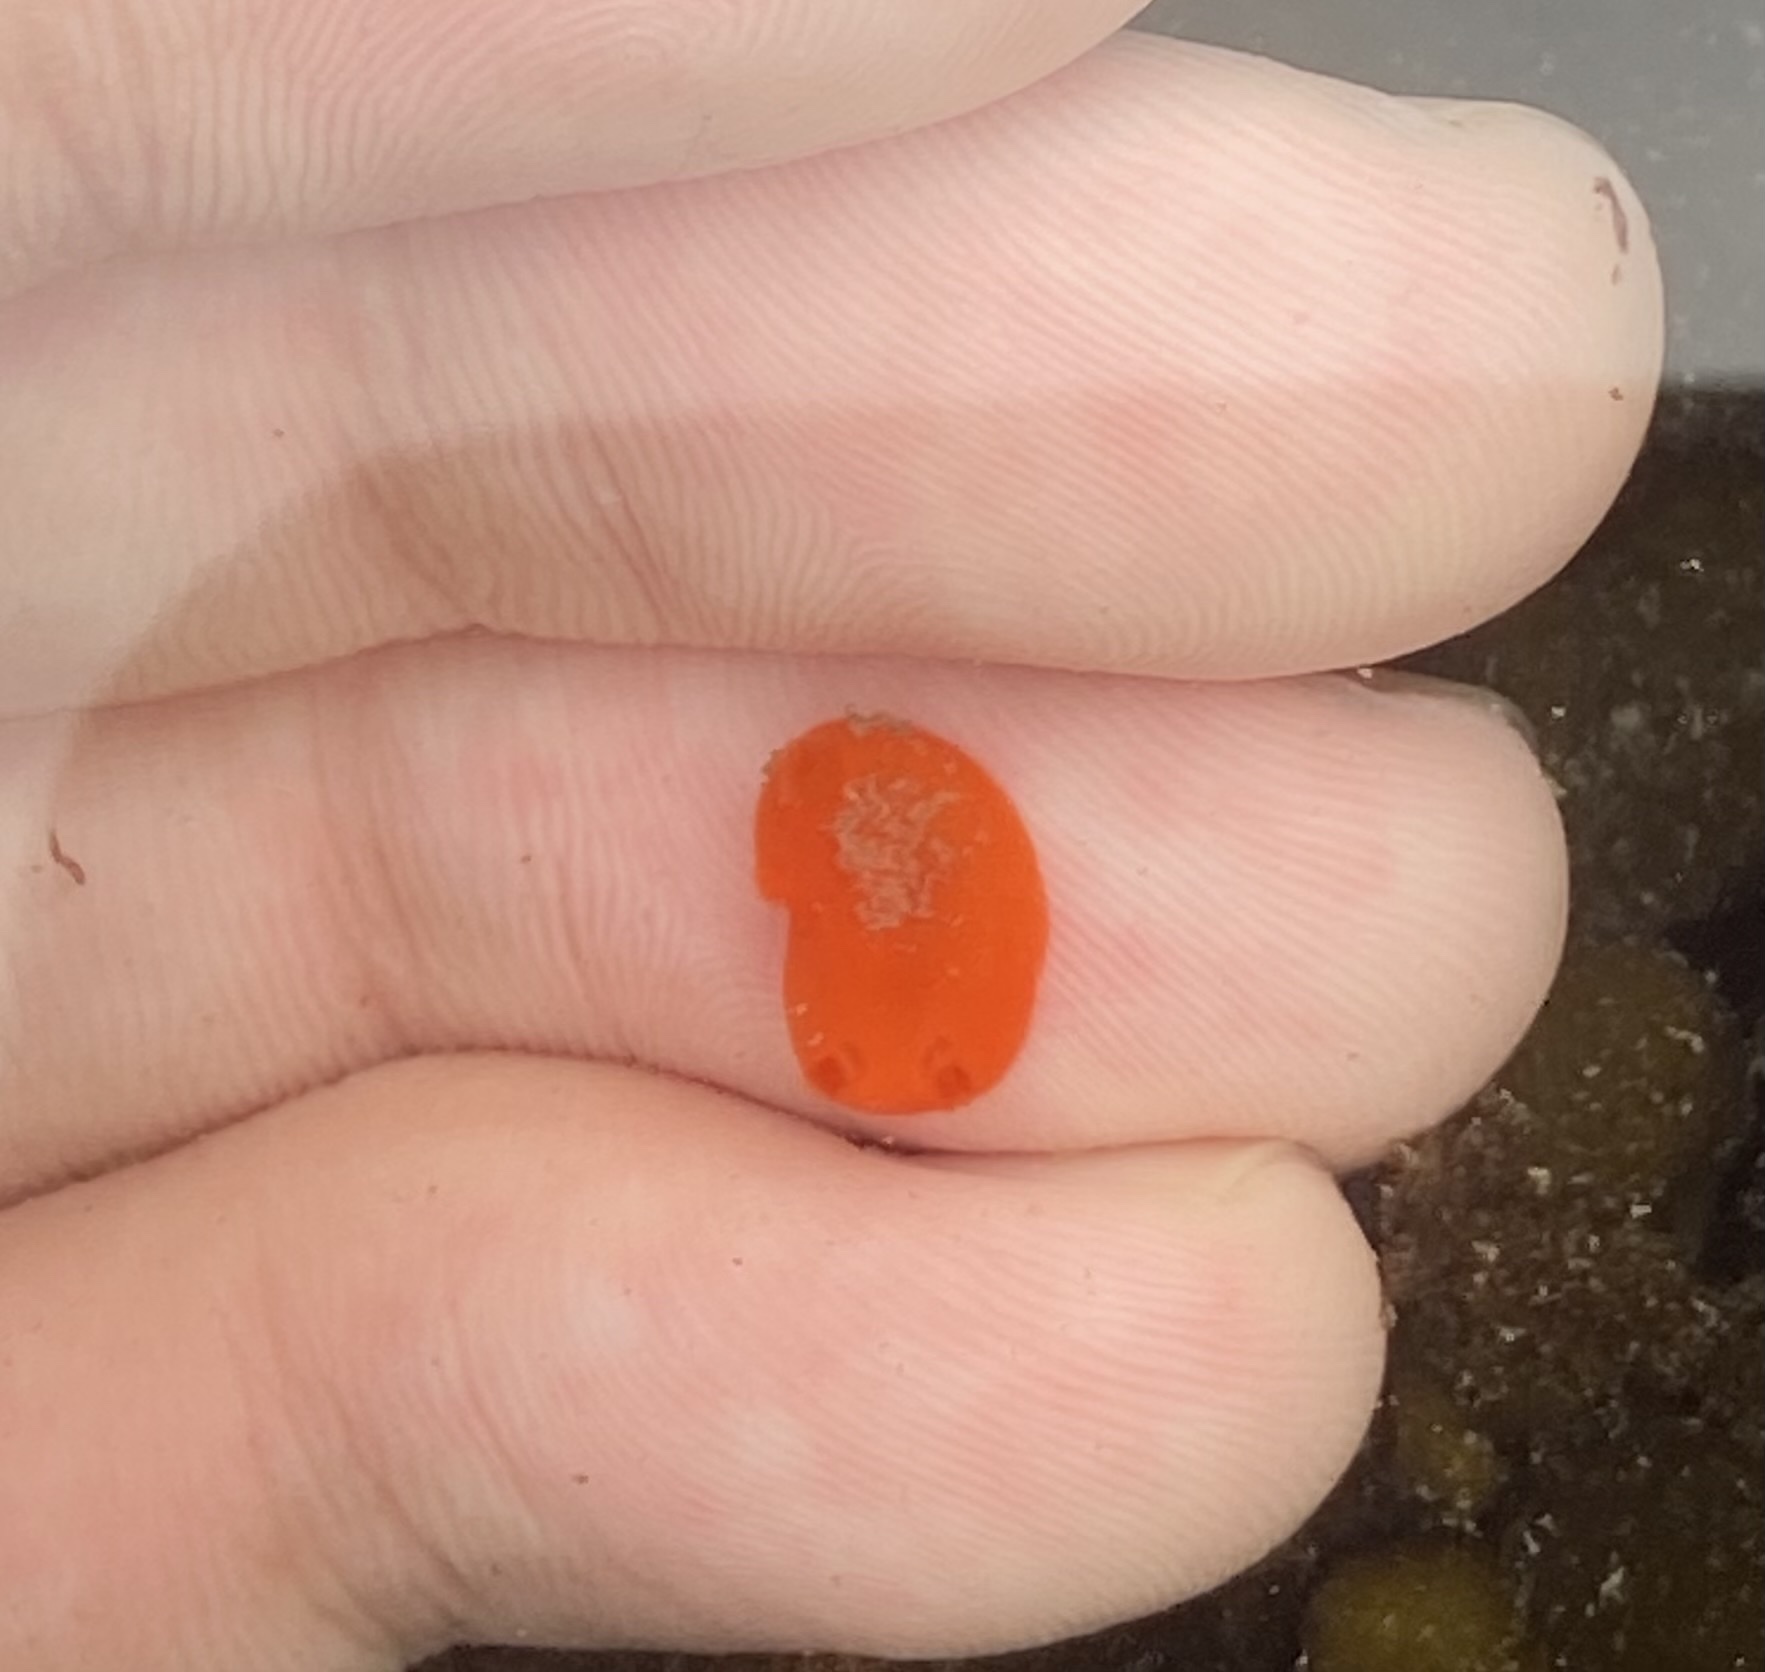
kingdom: Animalia
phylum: Mollusca
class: Gastropoda
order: Nudibranchia
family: Discodorididae
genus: Rostanga
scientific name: Rostanga pulchra
